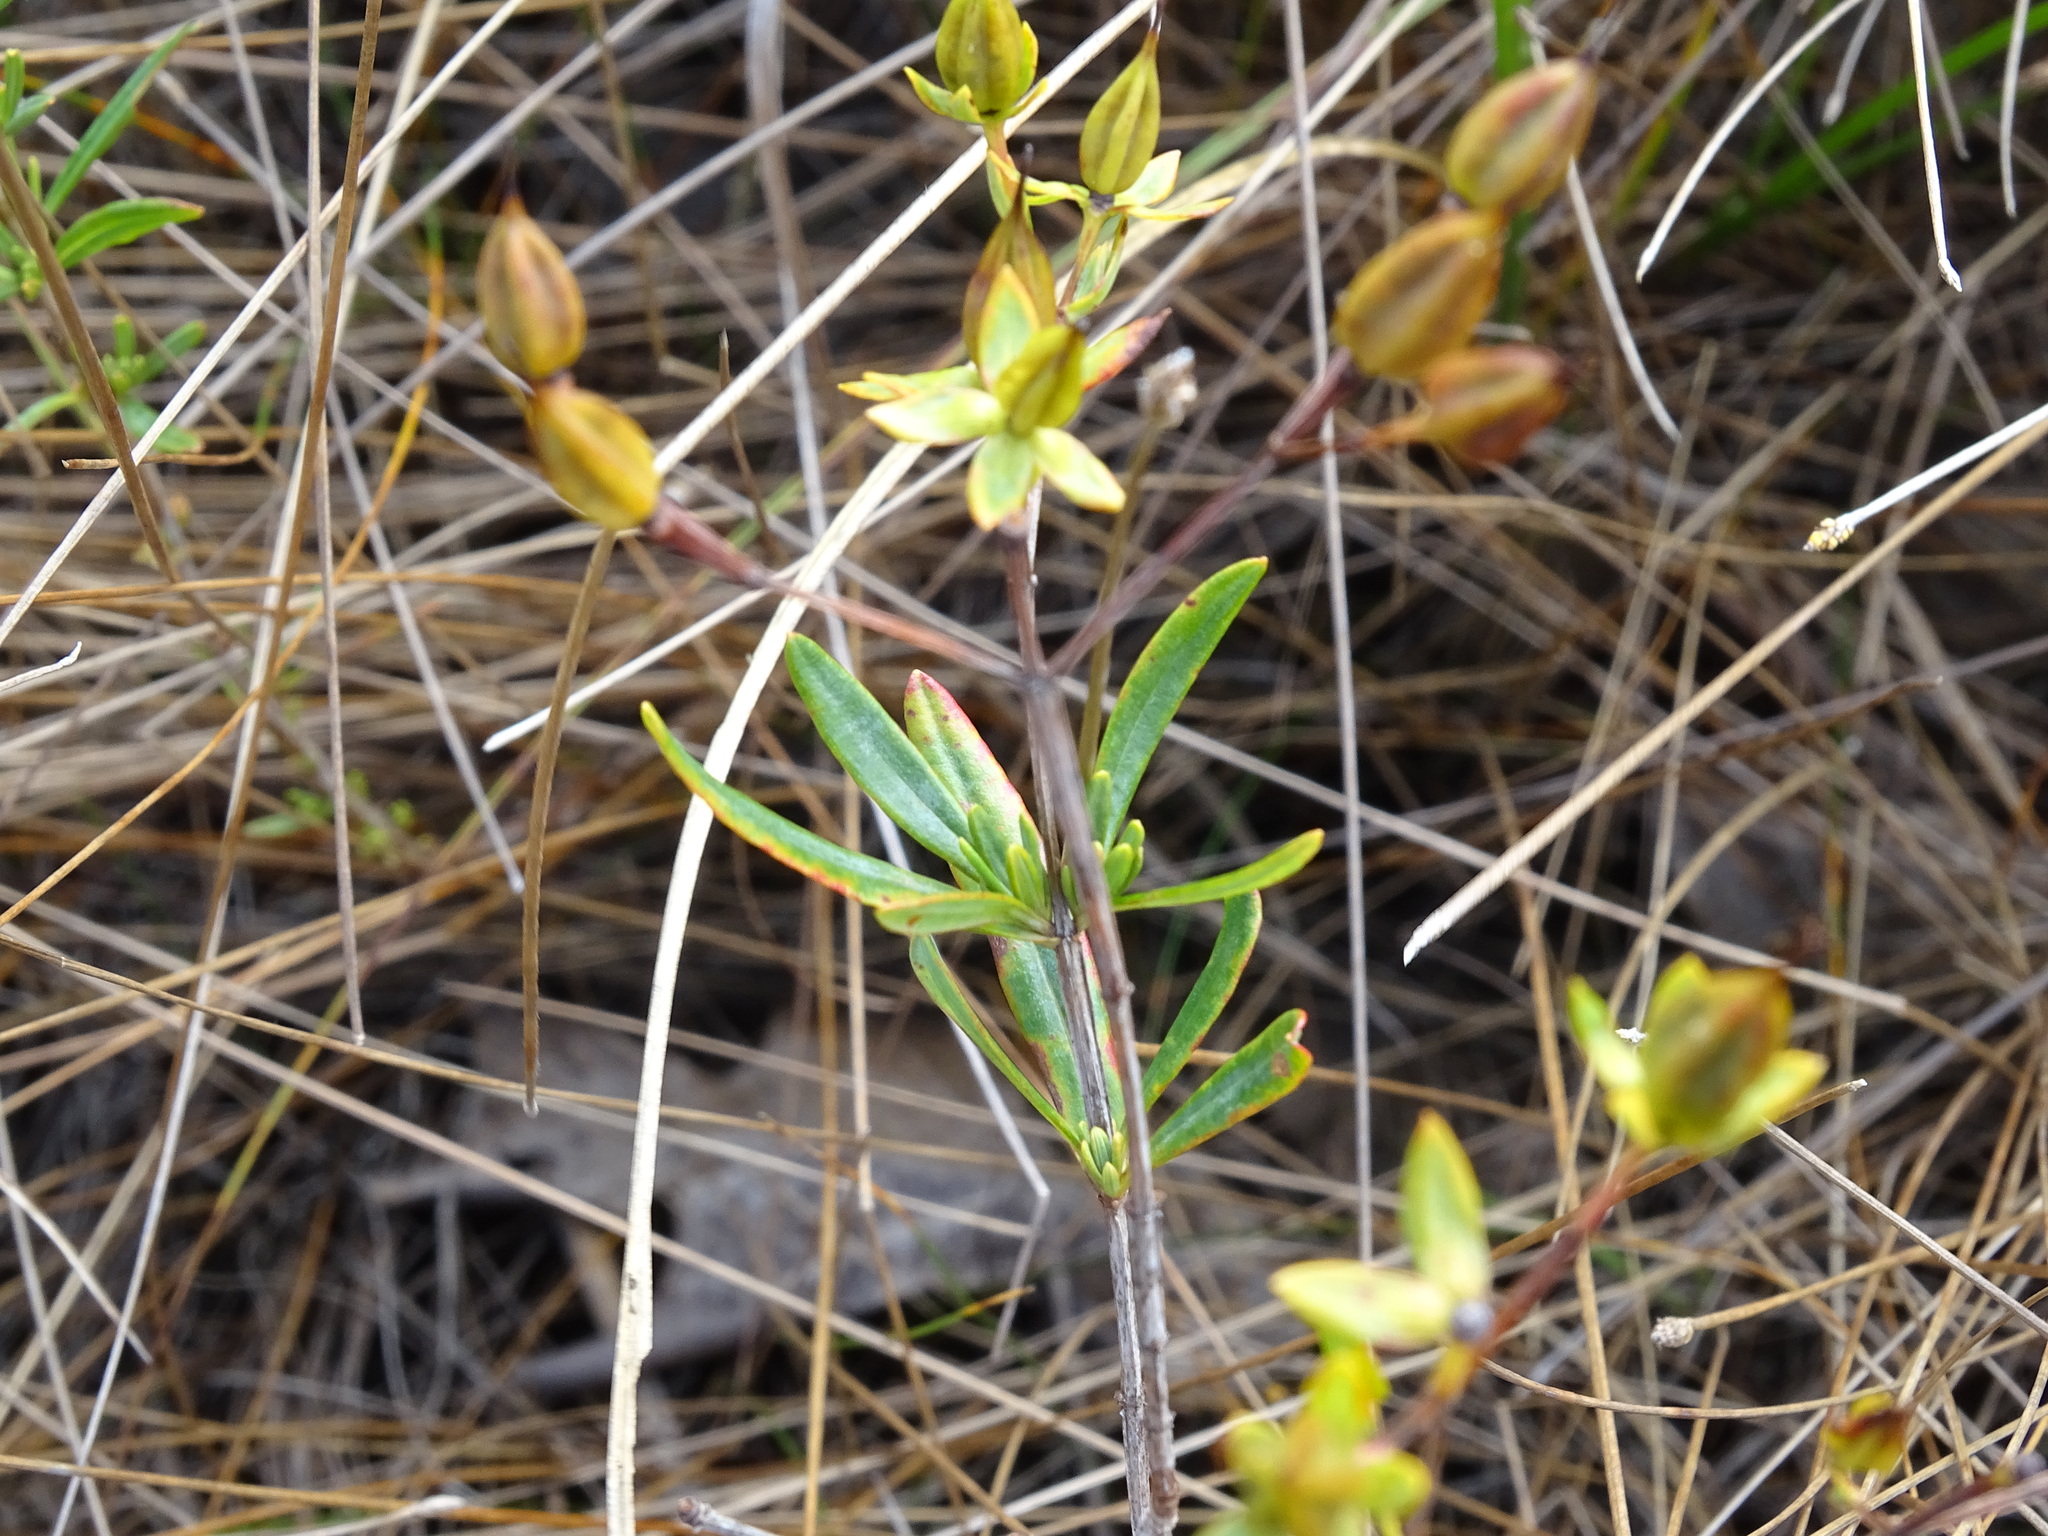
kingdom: Plantae
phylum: Tracheophyta
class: Magnoliopsida
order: Malpighiales
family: Hypericaceae
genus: Hypericum
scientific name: Hypericum kalmianum
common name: Kalm's st. john's-wort
